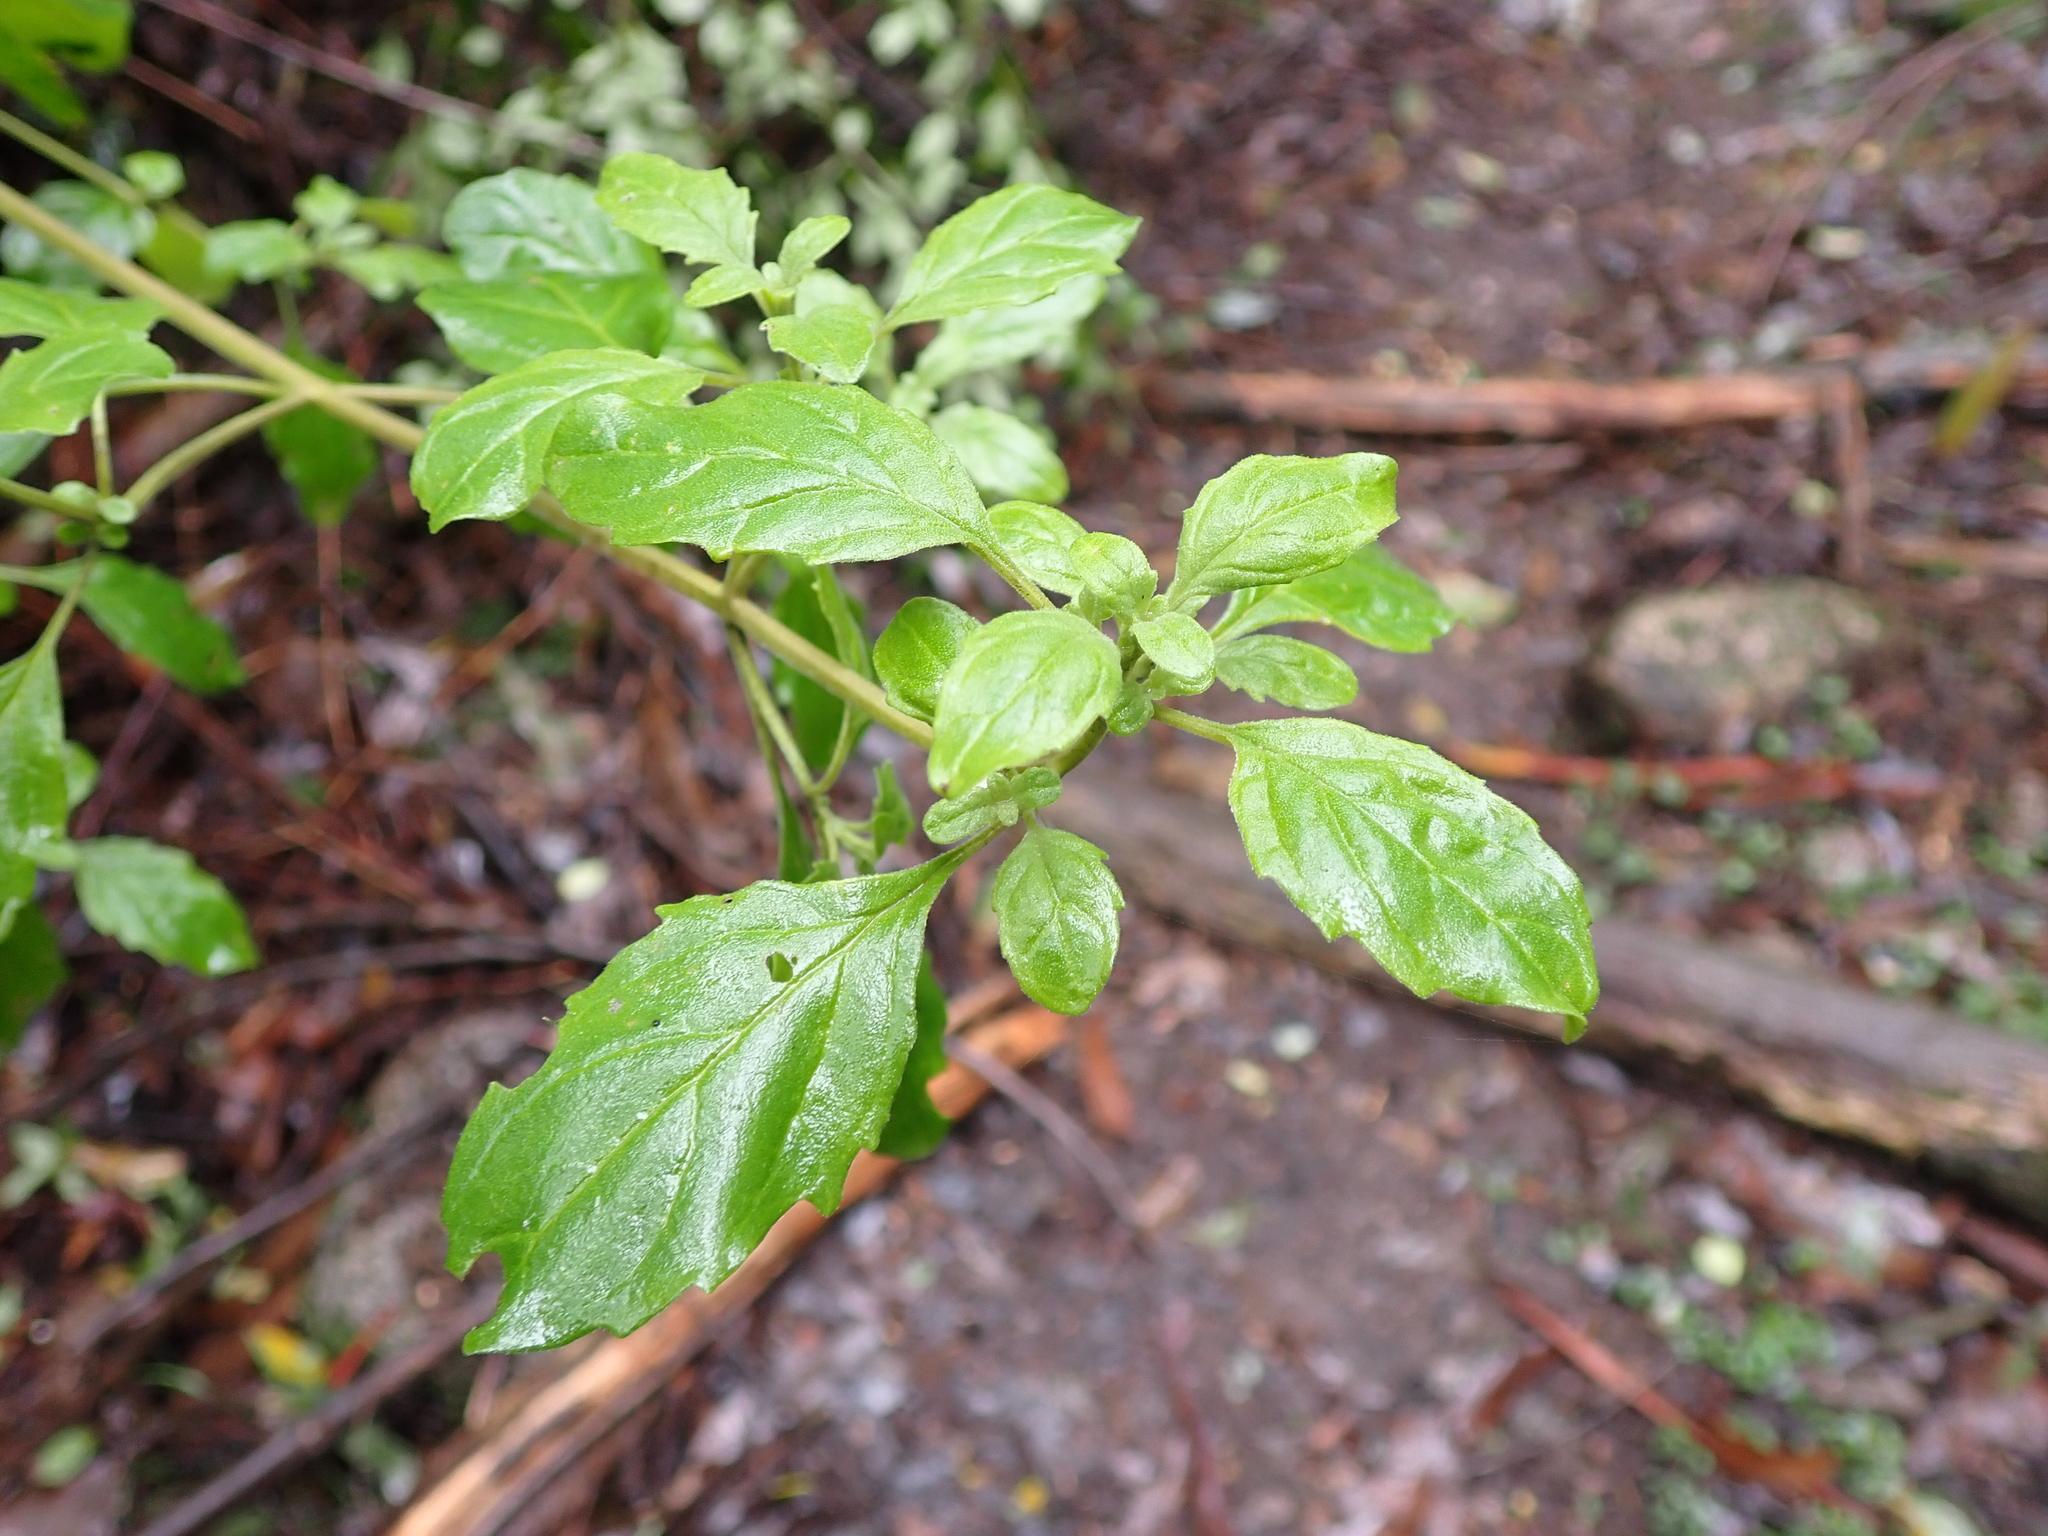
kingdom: Plantae
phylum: Tracheophyta
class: Magnoliopsida
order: Lamiales
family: Lamiaceae
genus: Prostanthera
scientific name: Prostanthera melissifolia
